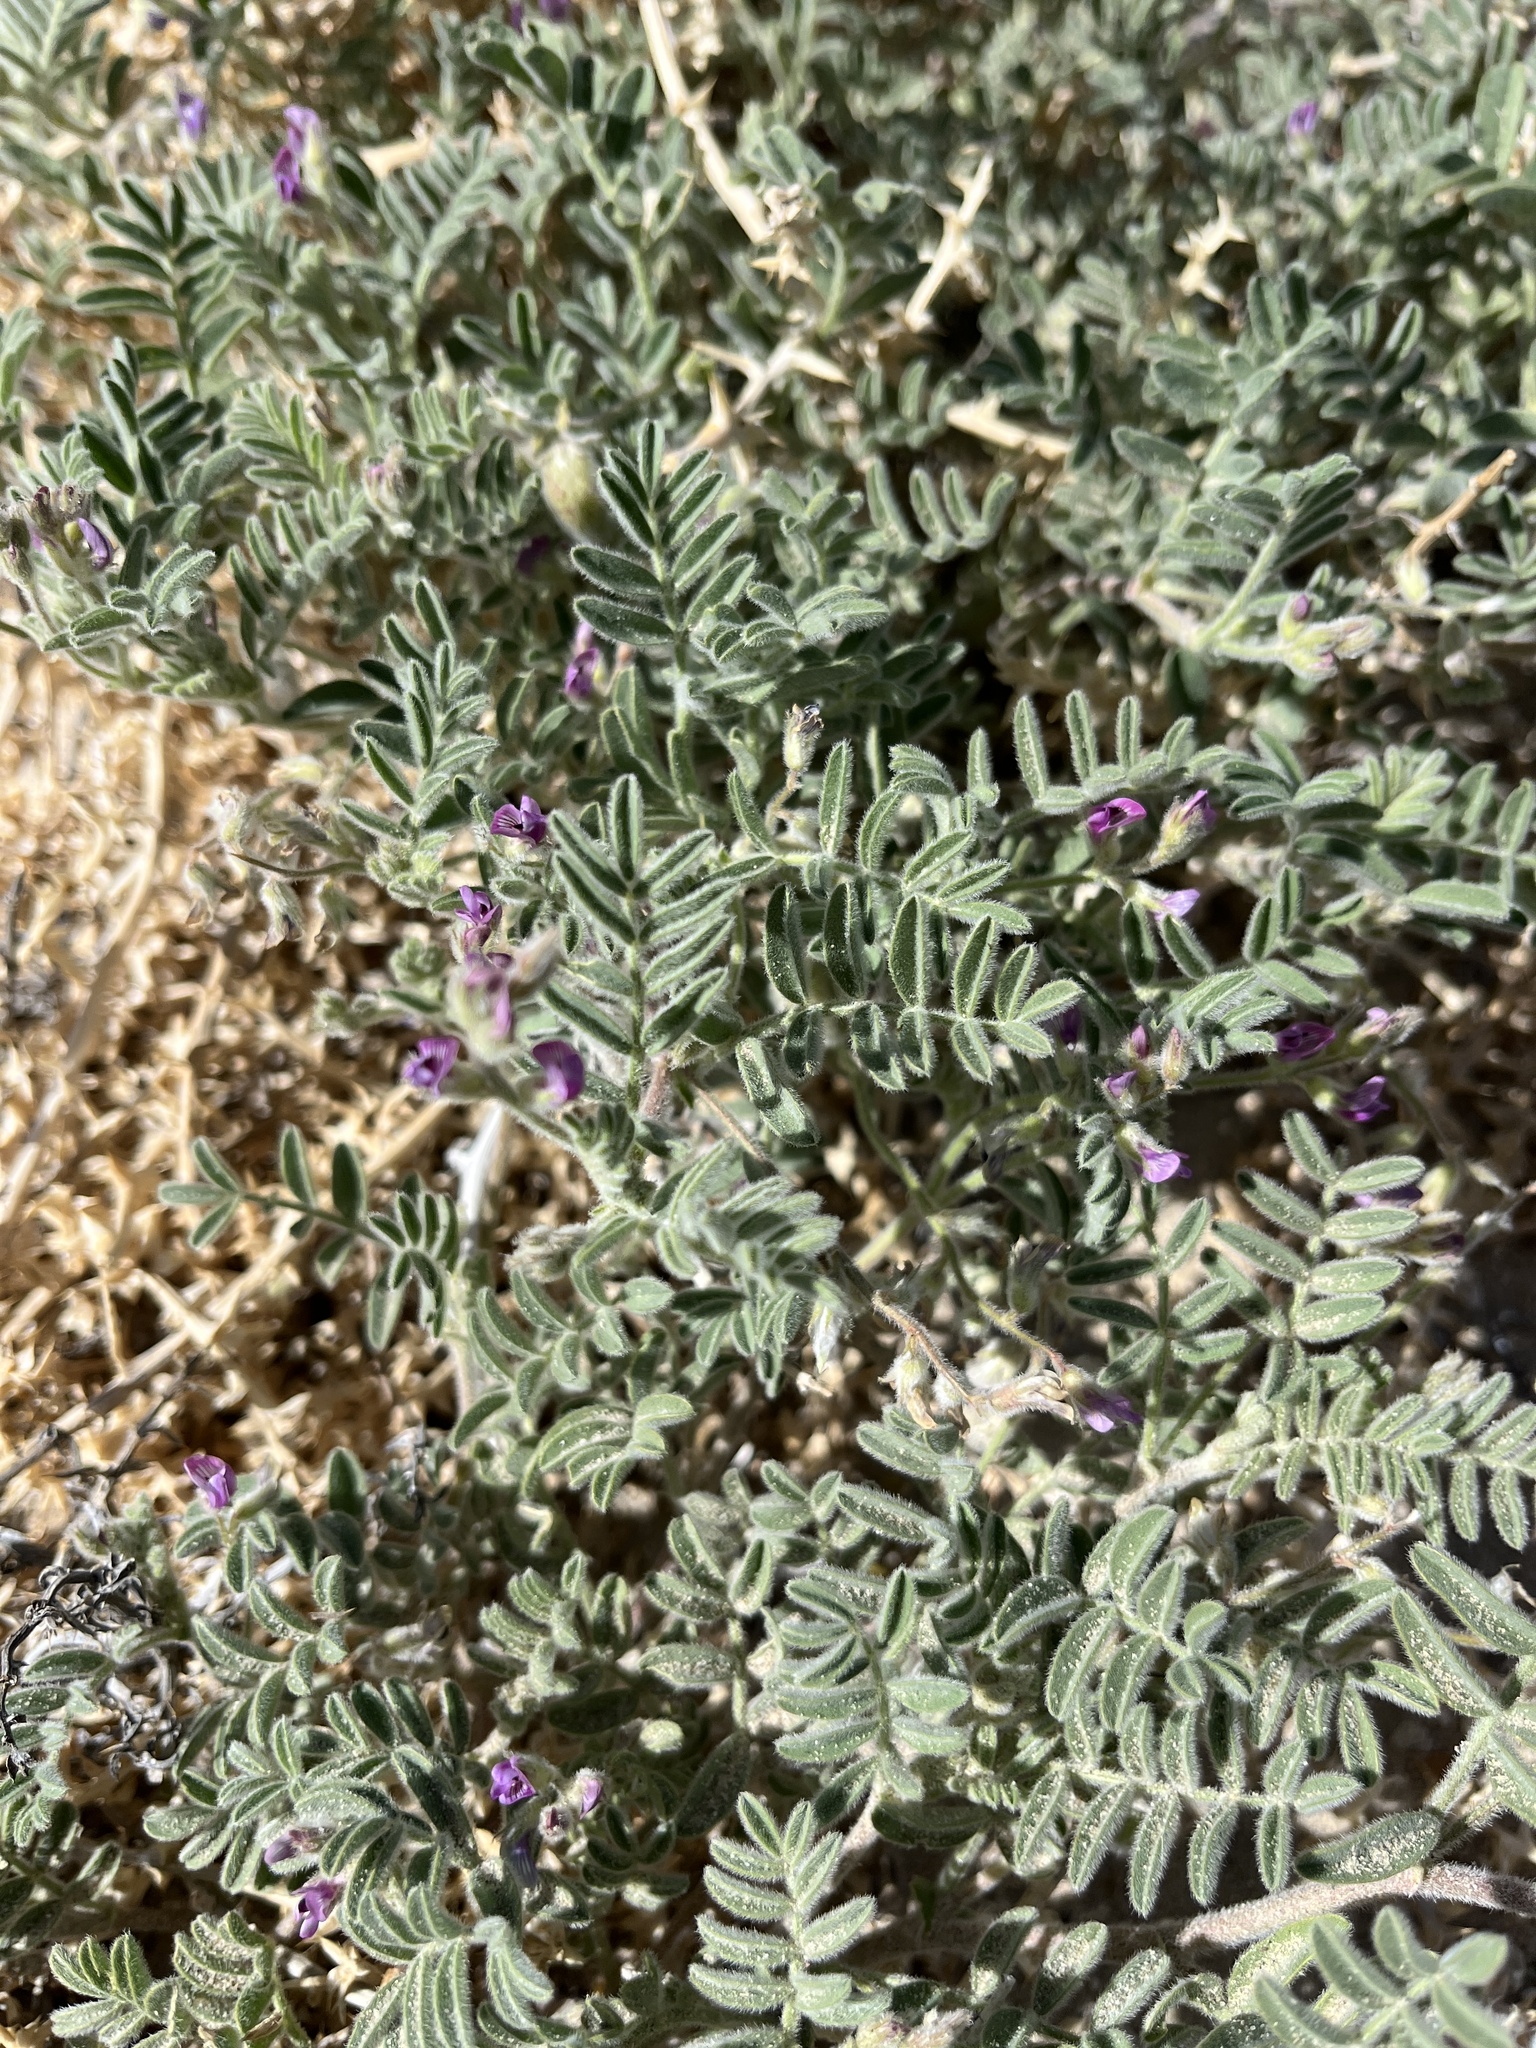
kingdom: Plantae
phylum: Tracheophyta
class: Magnoliopsida
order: Fabales
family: Fabaceae
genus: Astragalus
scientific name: Astragalus sabulonum
